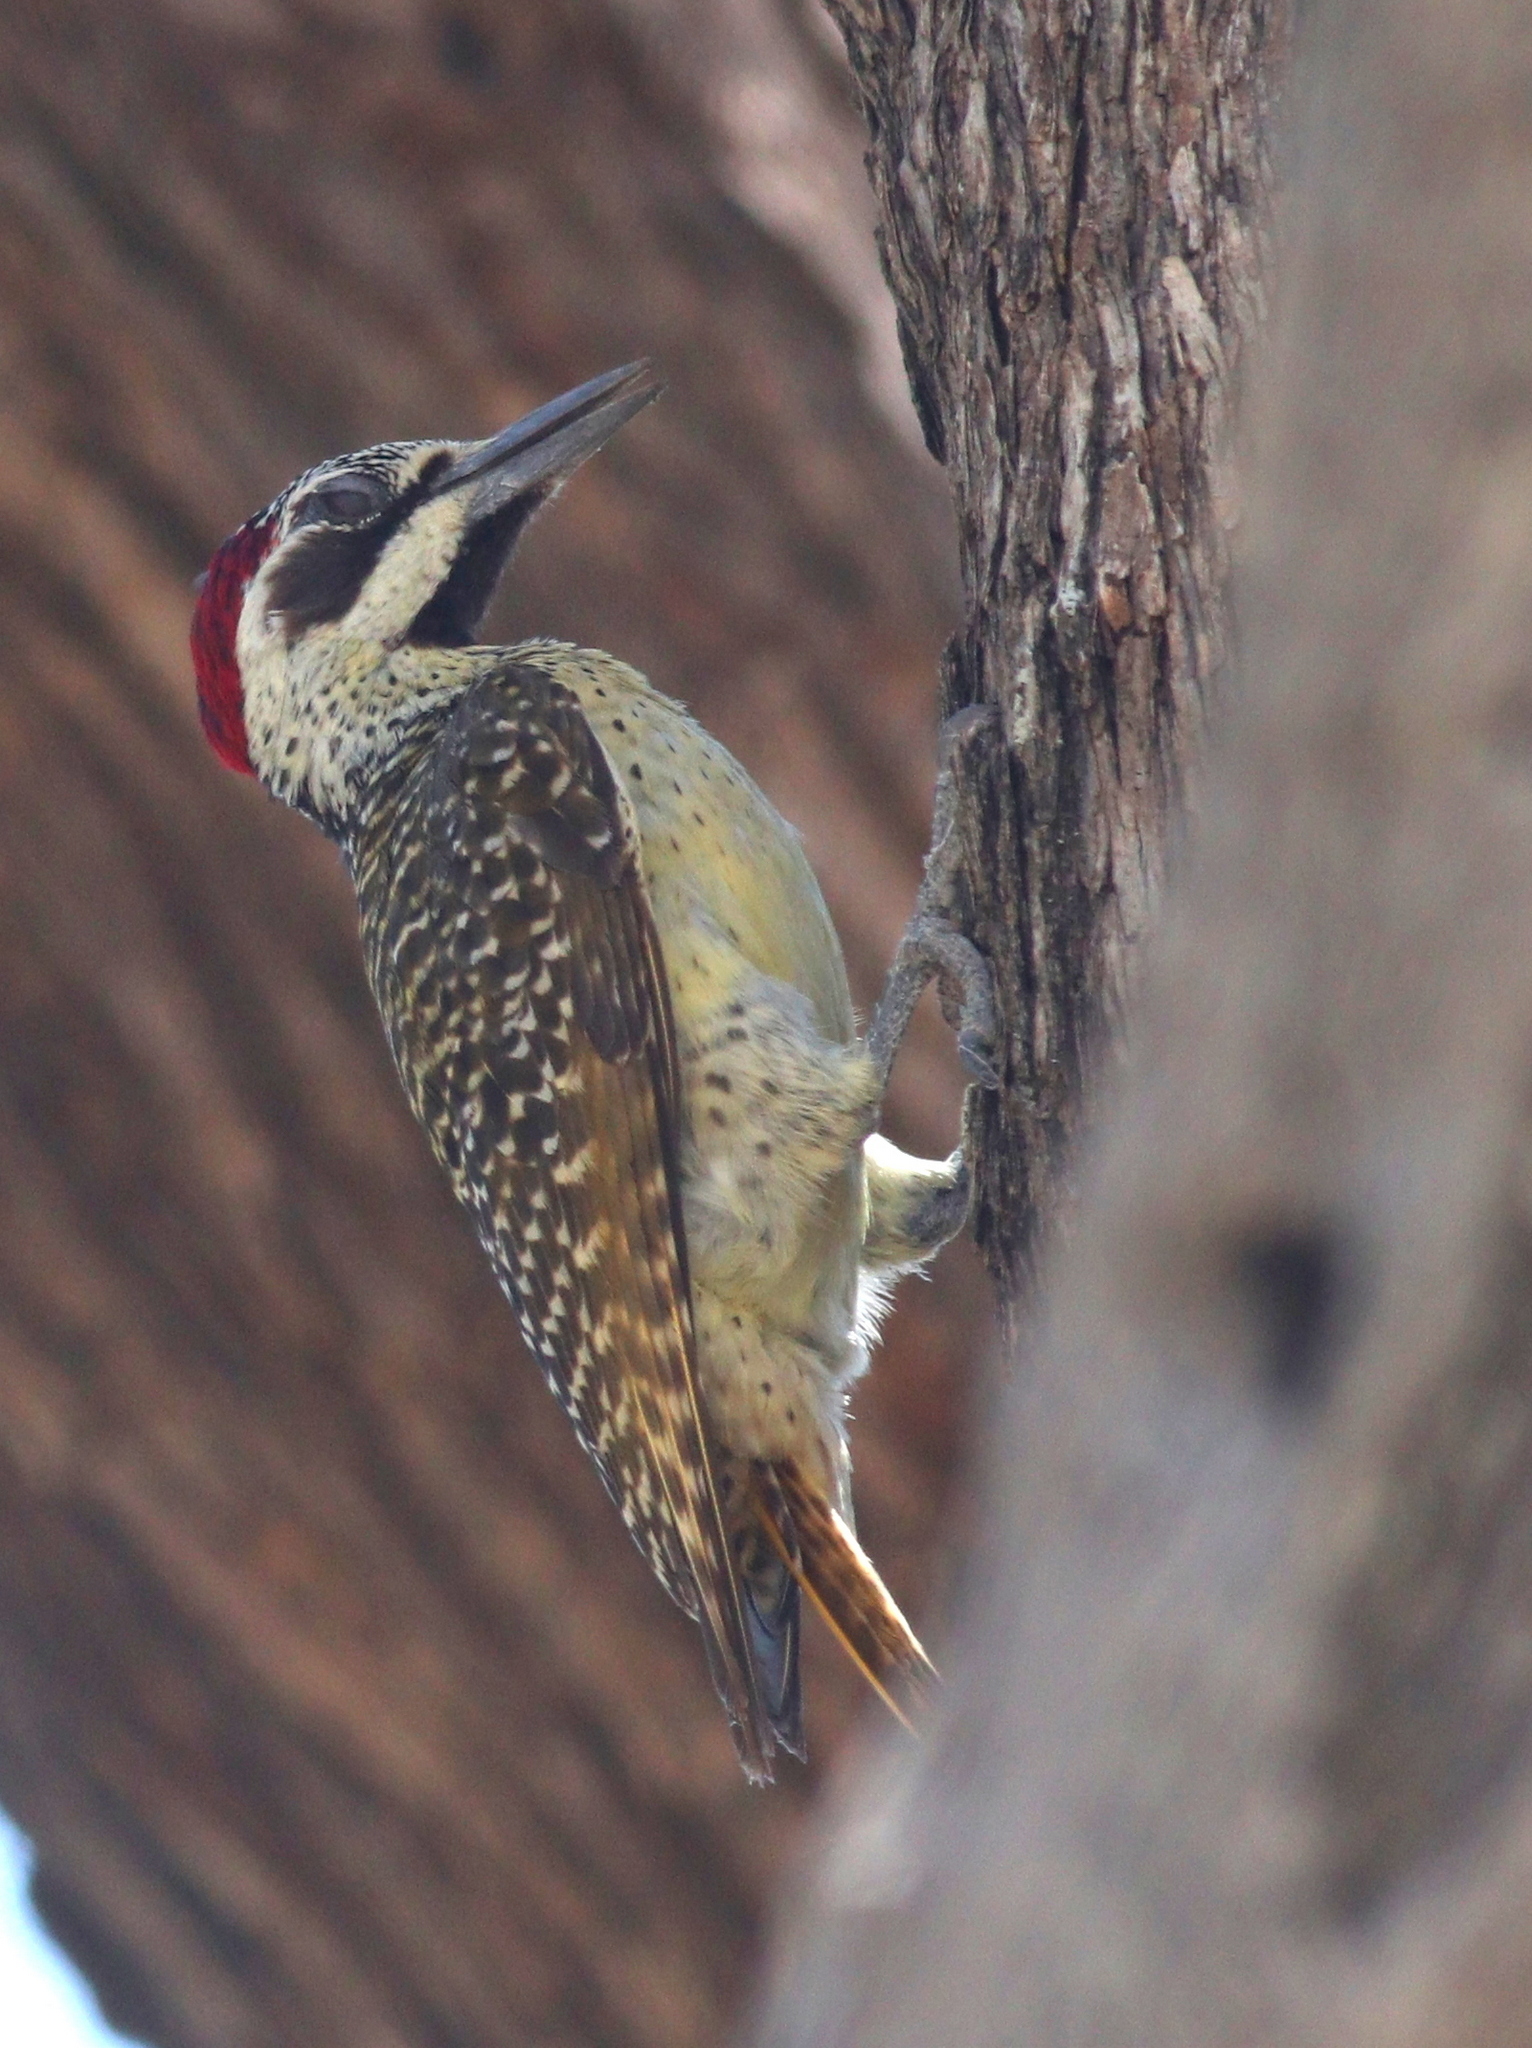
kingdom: Animalia
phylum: Chordata
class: Aves
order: Piciformes
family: Picidae
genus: Campethera
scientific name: Campethera bennettii
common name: Bennett's woodpecker
